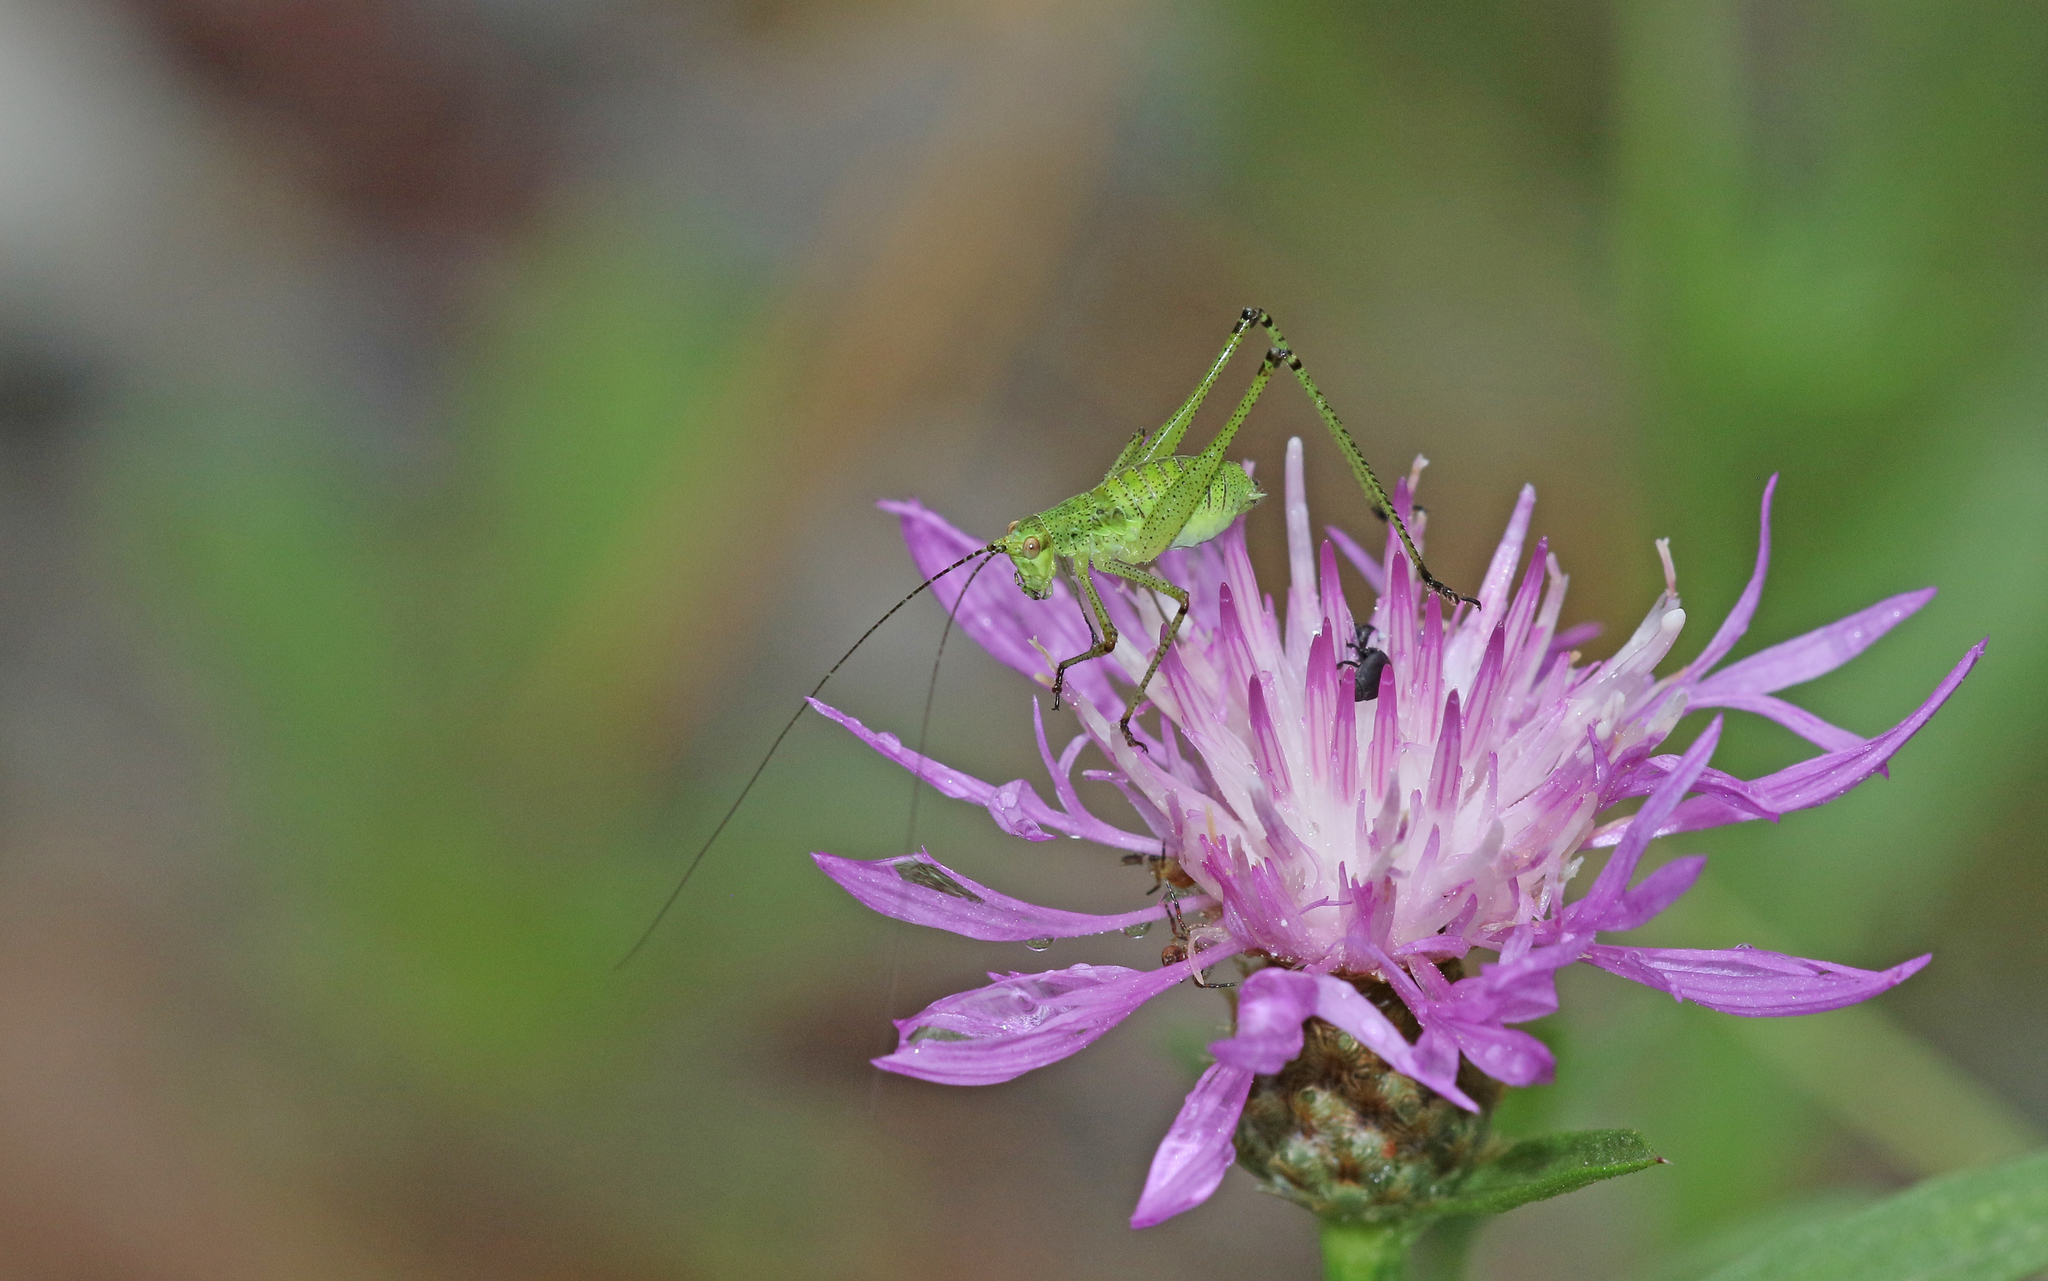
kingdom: Animalia
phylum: Arthropoda
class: Insecta
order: Orthoptera
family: Tettigoniidae
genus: Phaneroptera
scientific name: Phaneroptera nana
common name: Southern sickle bush-cricket
